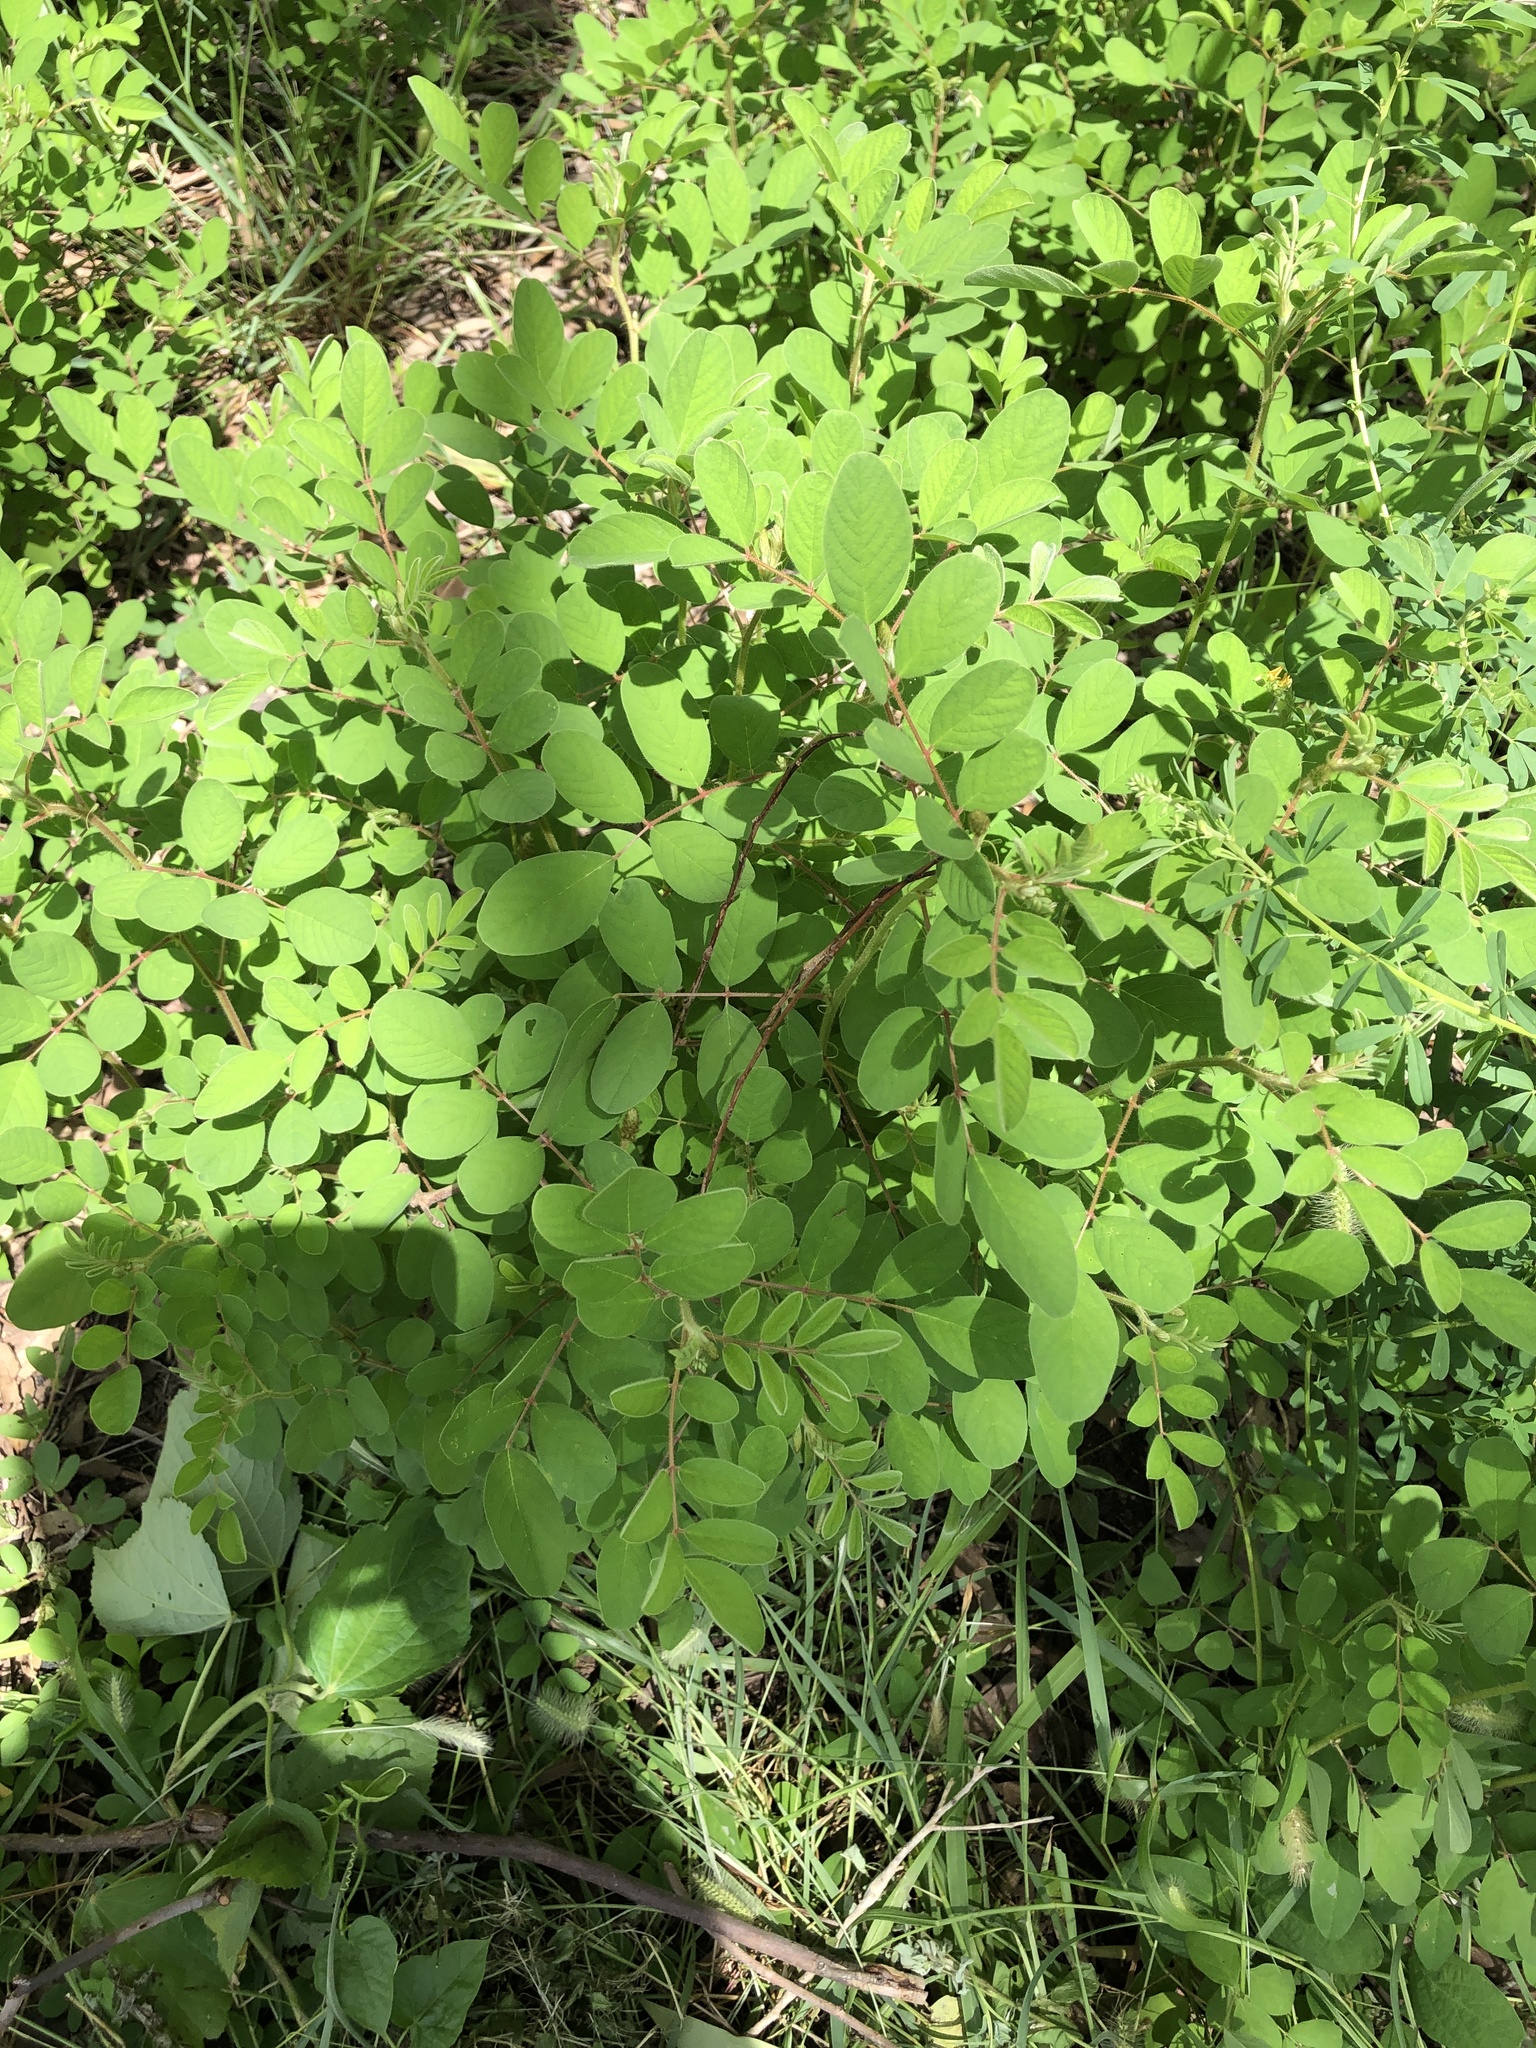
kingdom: Plantae
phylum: Tracheophyta
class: Magnoliopsida
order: Fabales
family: Fabaceae
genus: Indigofera
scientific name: Indigofera hirsuta
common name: Hairy indigo
